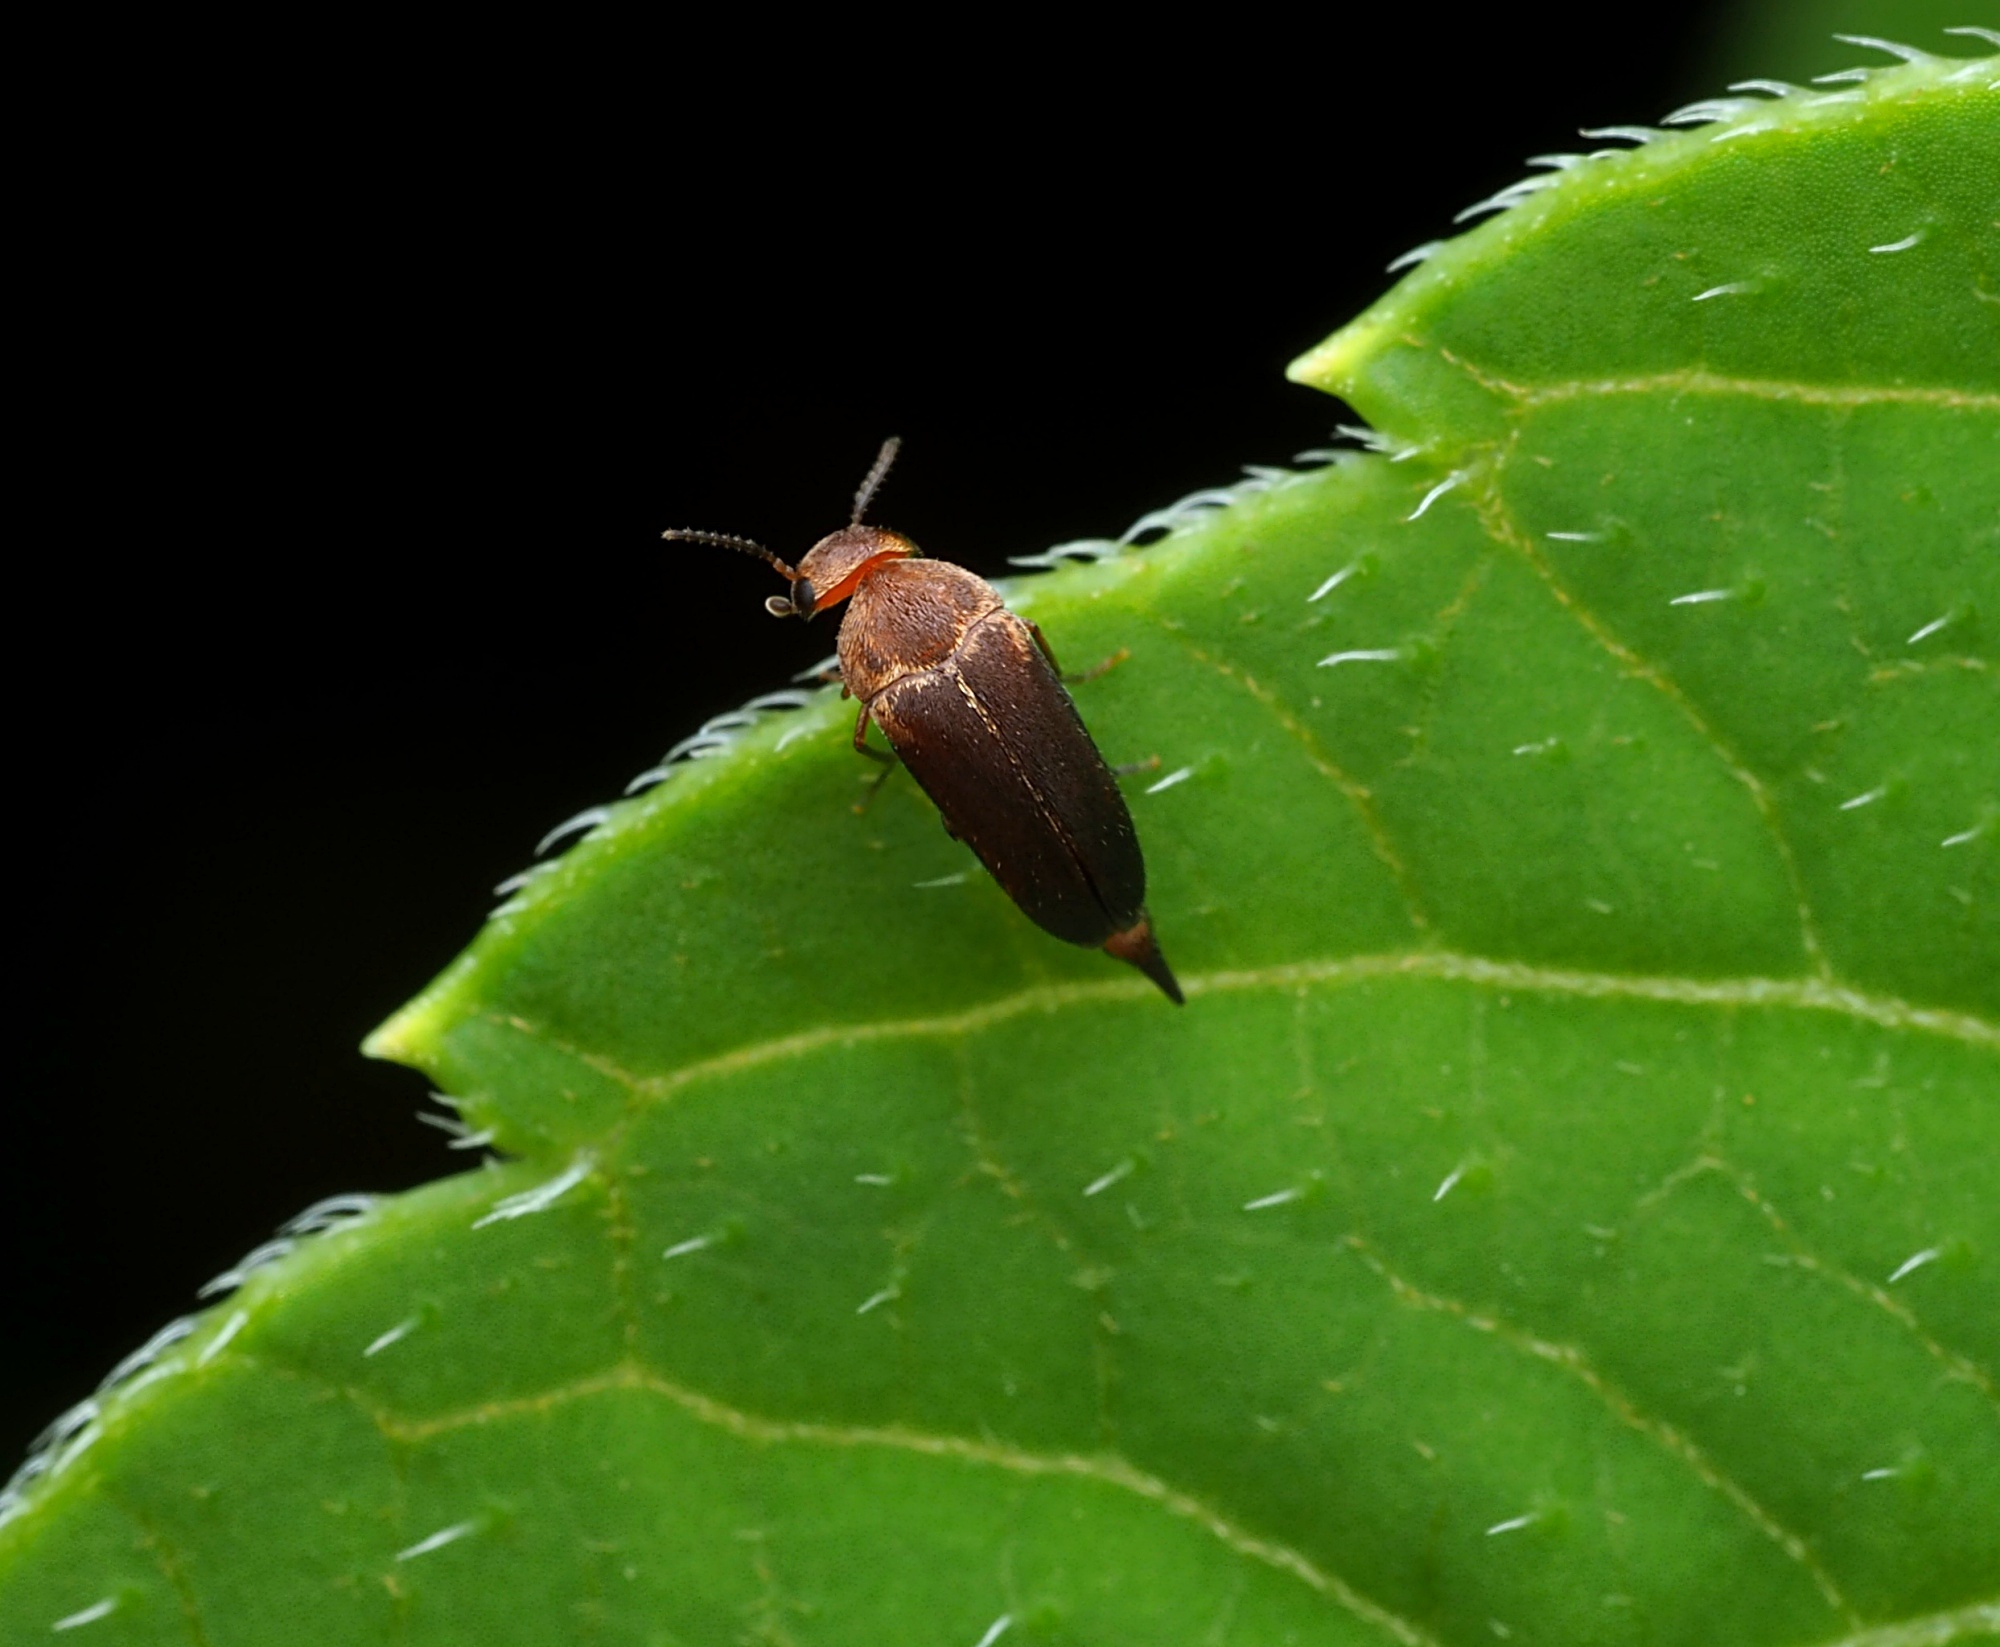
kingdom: Animalia
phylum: Arthropoda
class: Insecta
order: Coleoptera
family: Mordellidae
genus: Tolidopalpus
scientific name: Tolidopalpus
